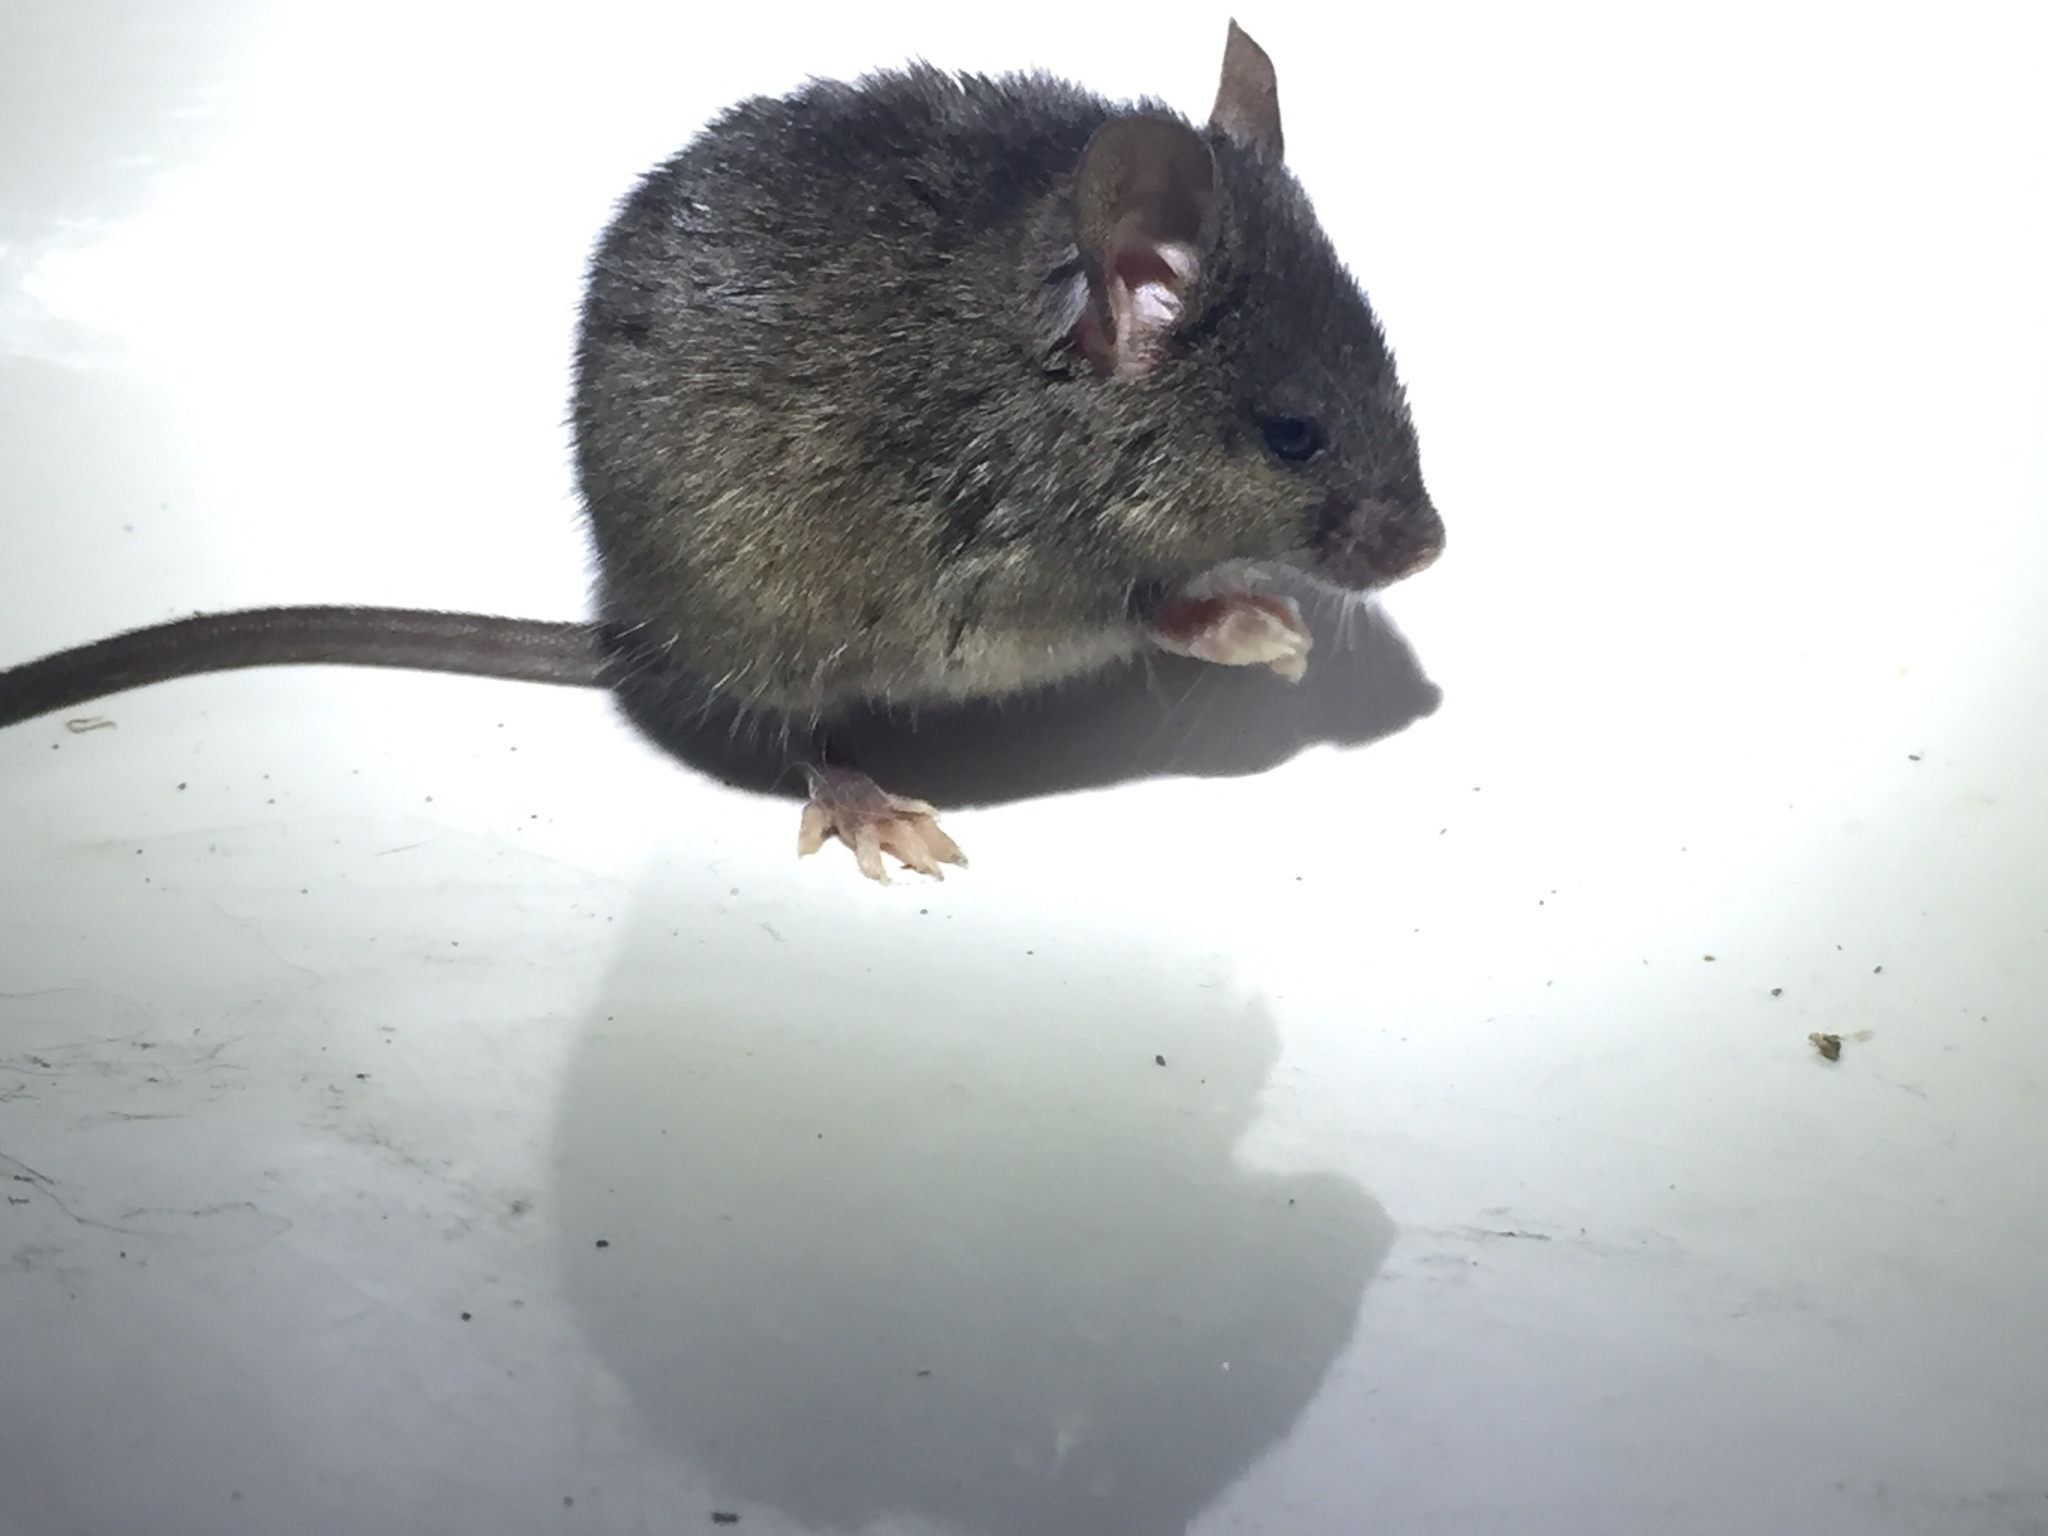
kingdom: Animalia
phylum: Chordata
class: Mammalia
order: Rodentia
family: Muridae
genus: Mus
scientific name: Mus musculus
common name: House mouse
